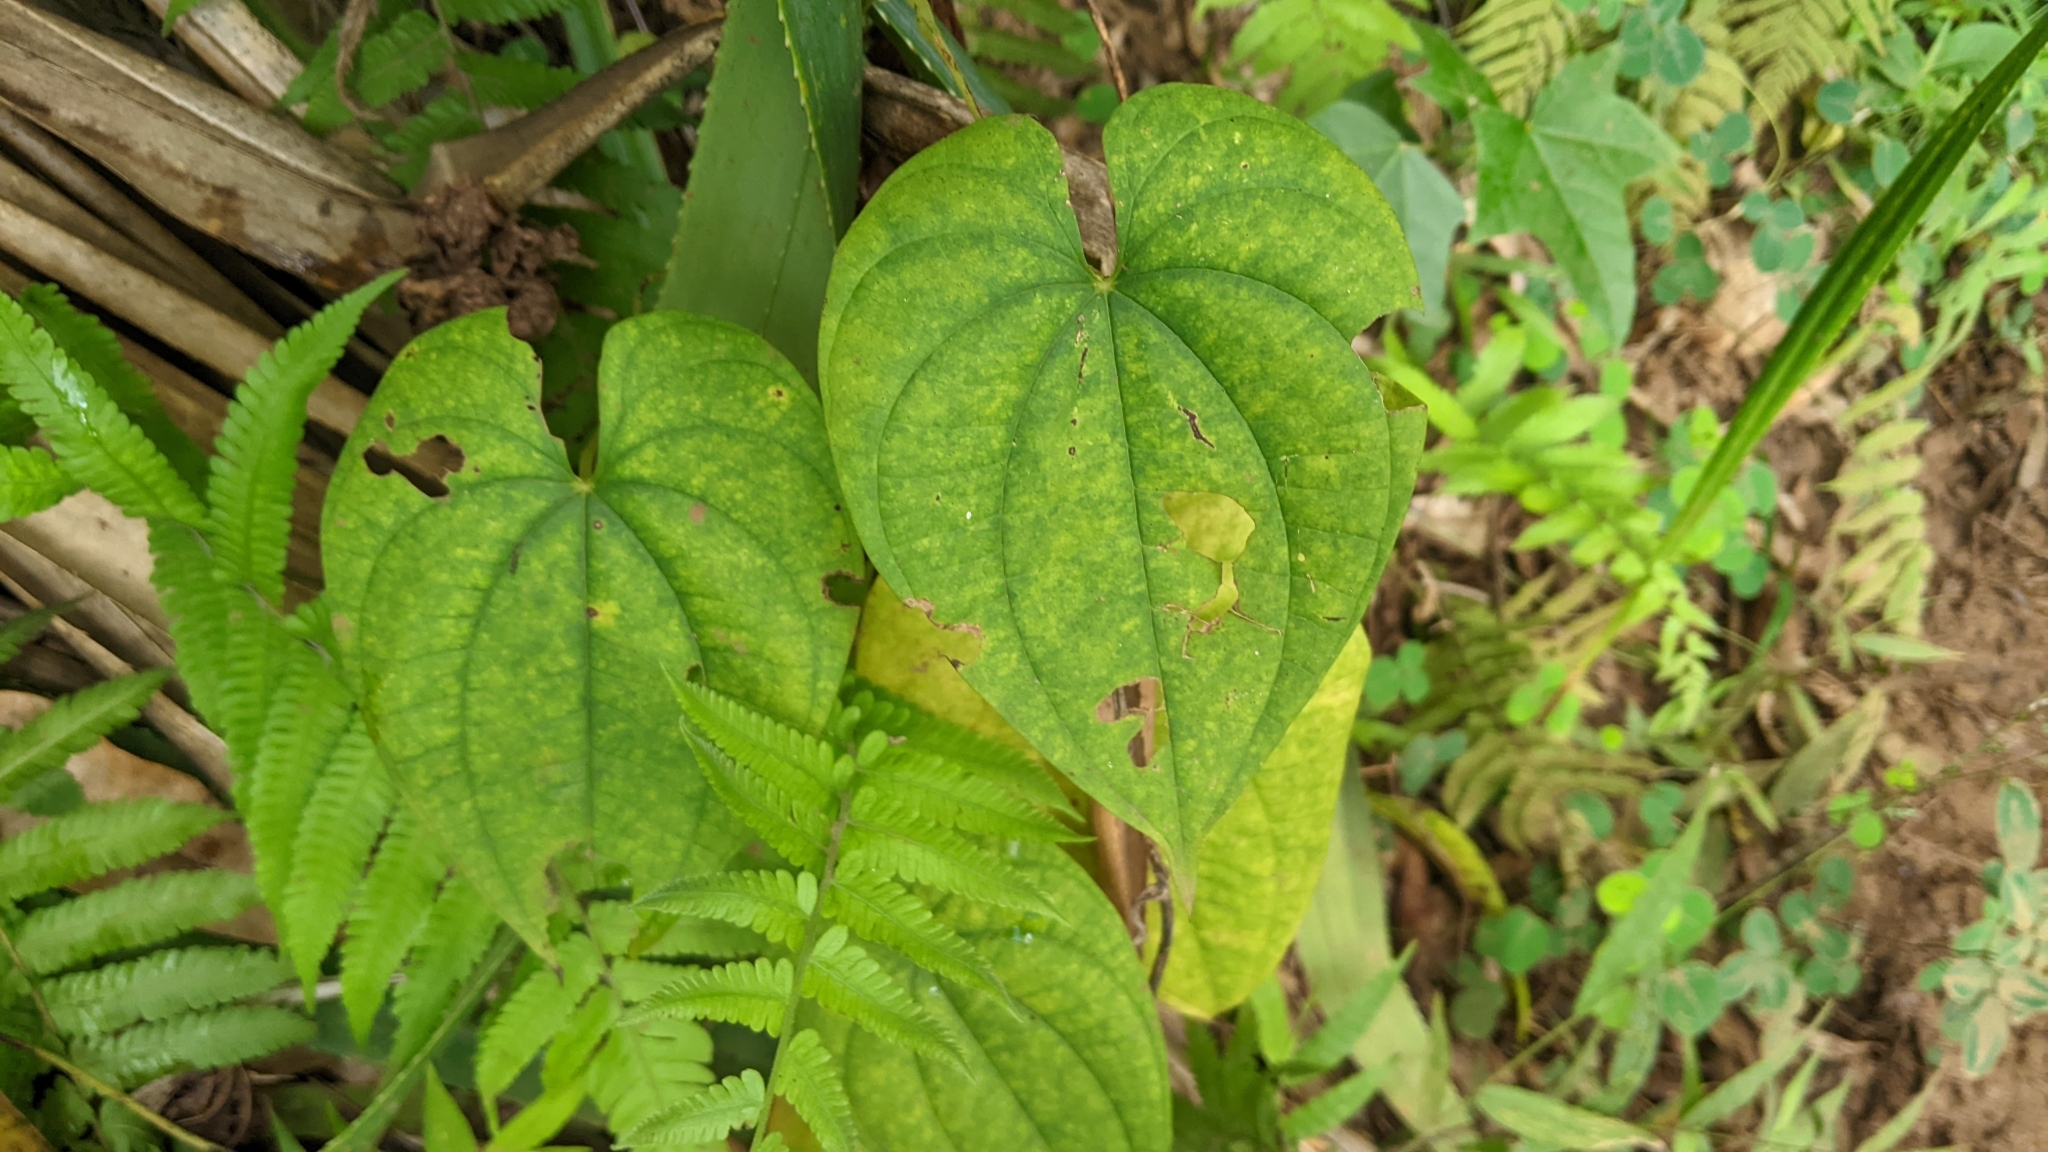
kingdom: Plantae
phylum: Tracheophyta
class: Liliopsida
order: Dioscoreales
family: Dioscoreaceae
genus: Dioscorea
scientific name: Dioscorea bulbifera
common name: Air yam
